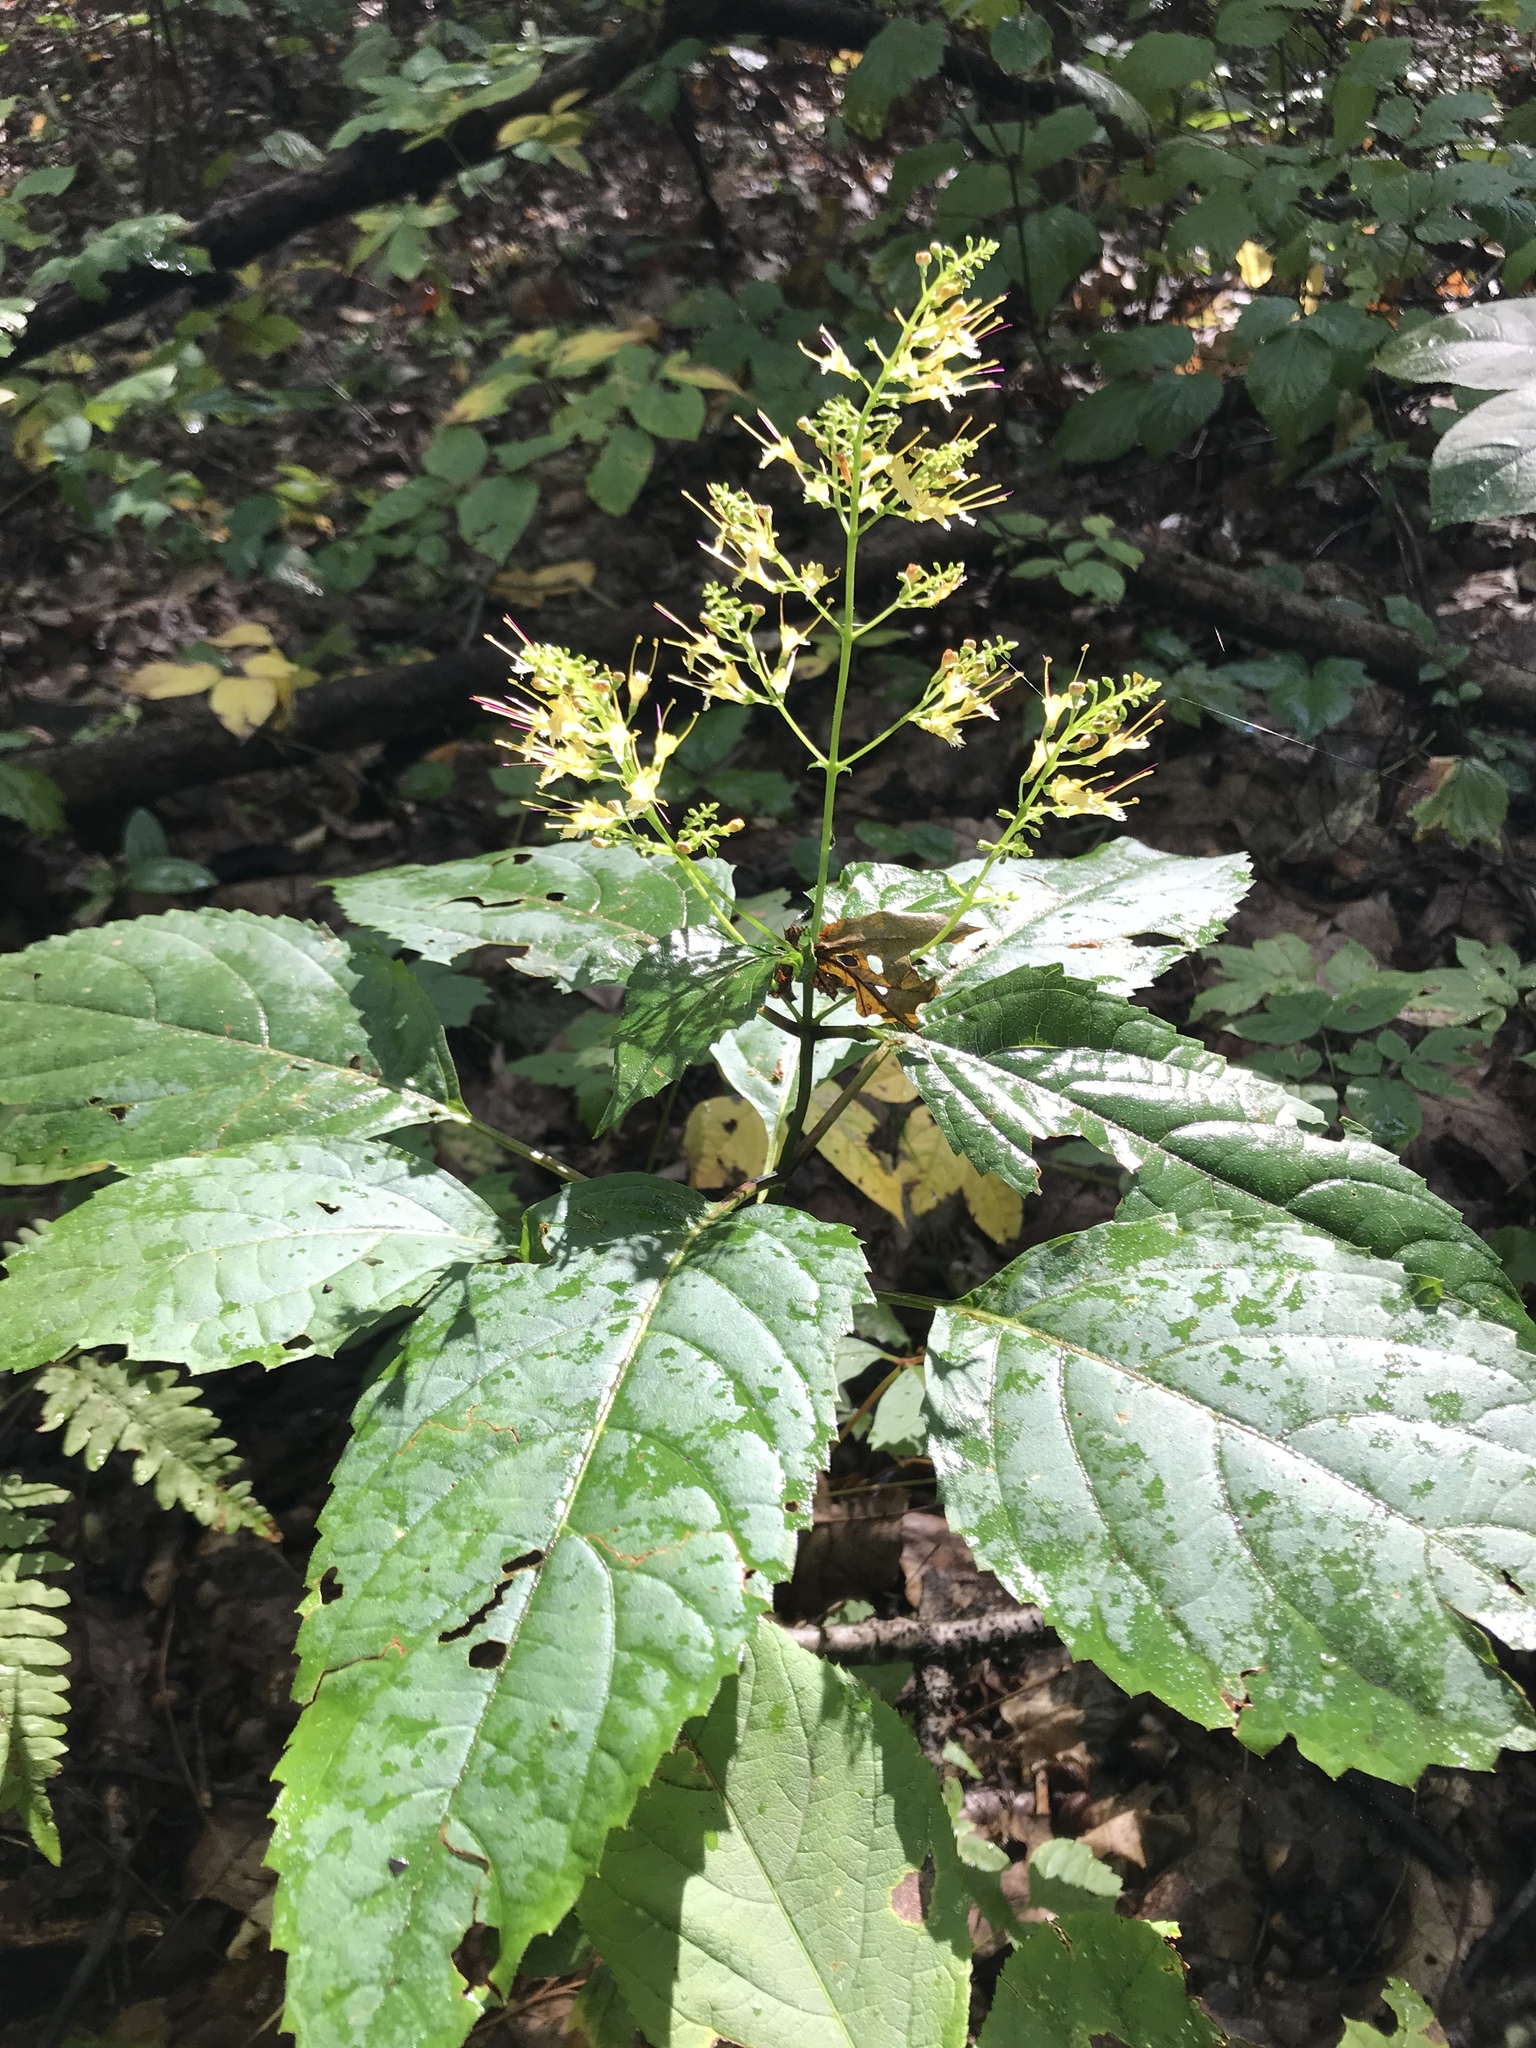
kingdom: Plantae
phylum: Tracheophyta
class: Magnoliopsida
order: Lamiales
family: Lamiaceae
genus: Collinsonia
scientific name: Collinsonia canadensis
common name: Northern horsebalm
